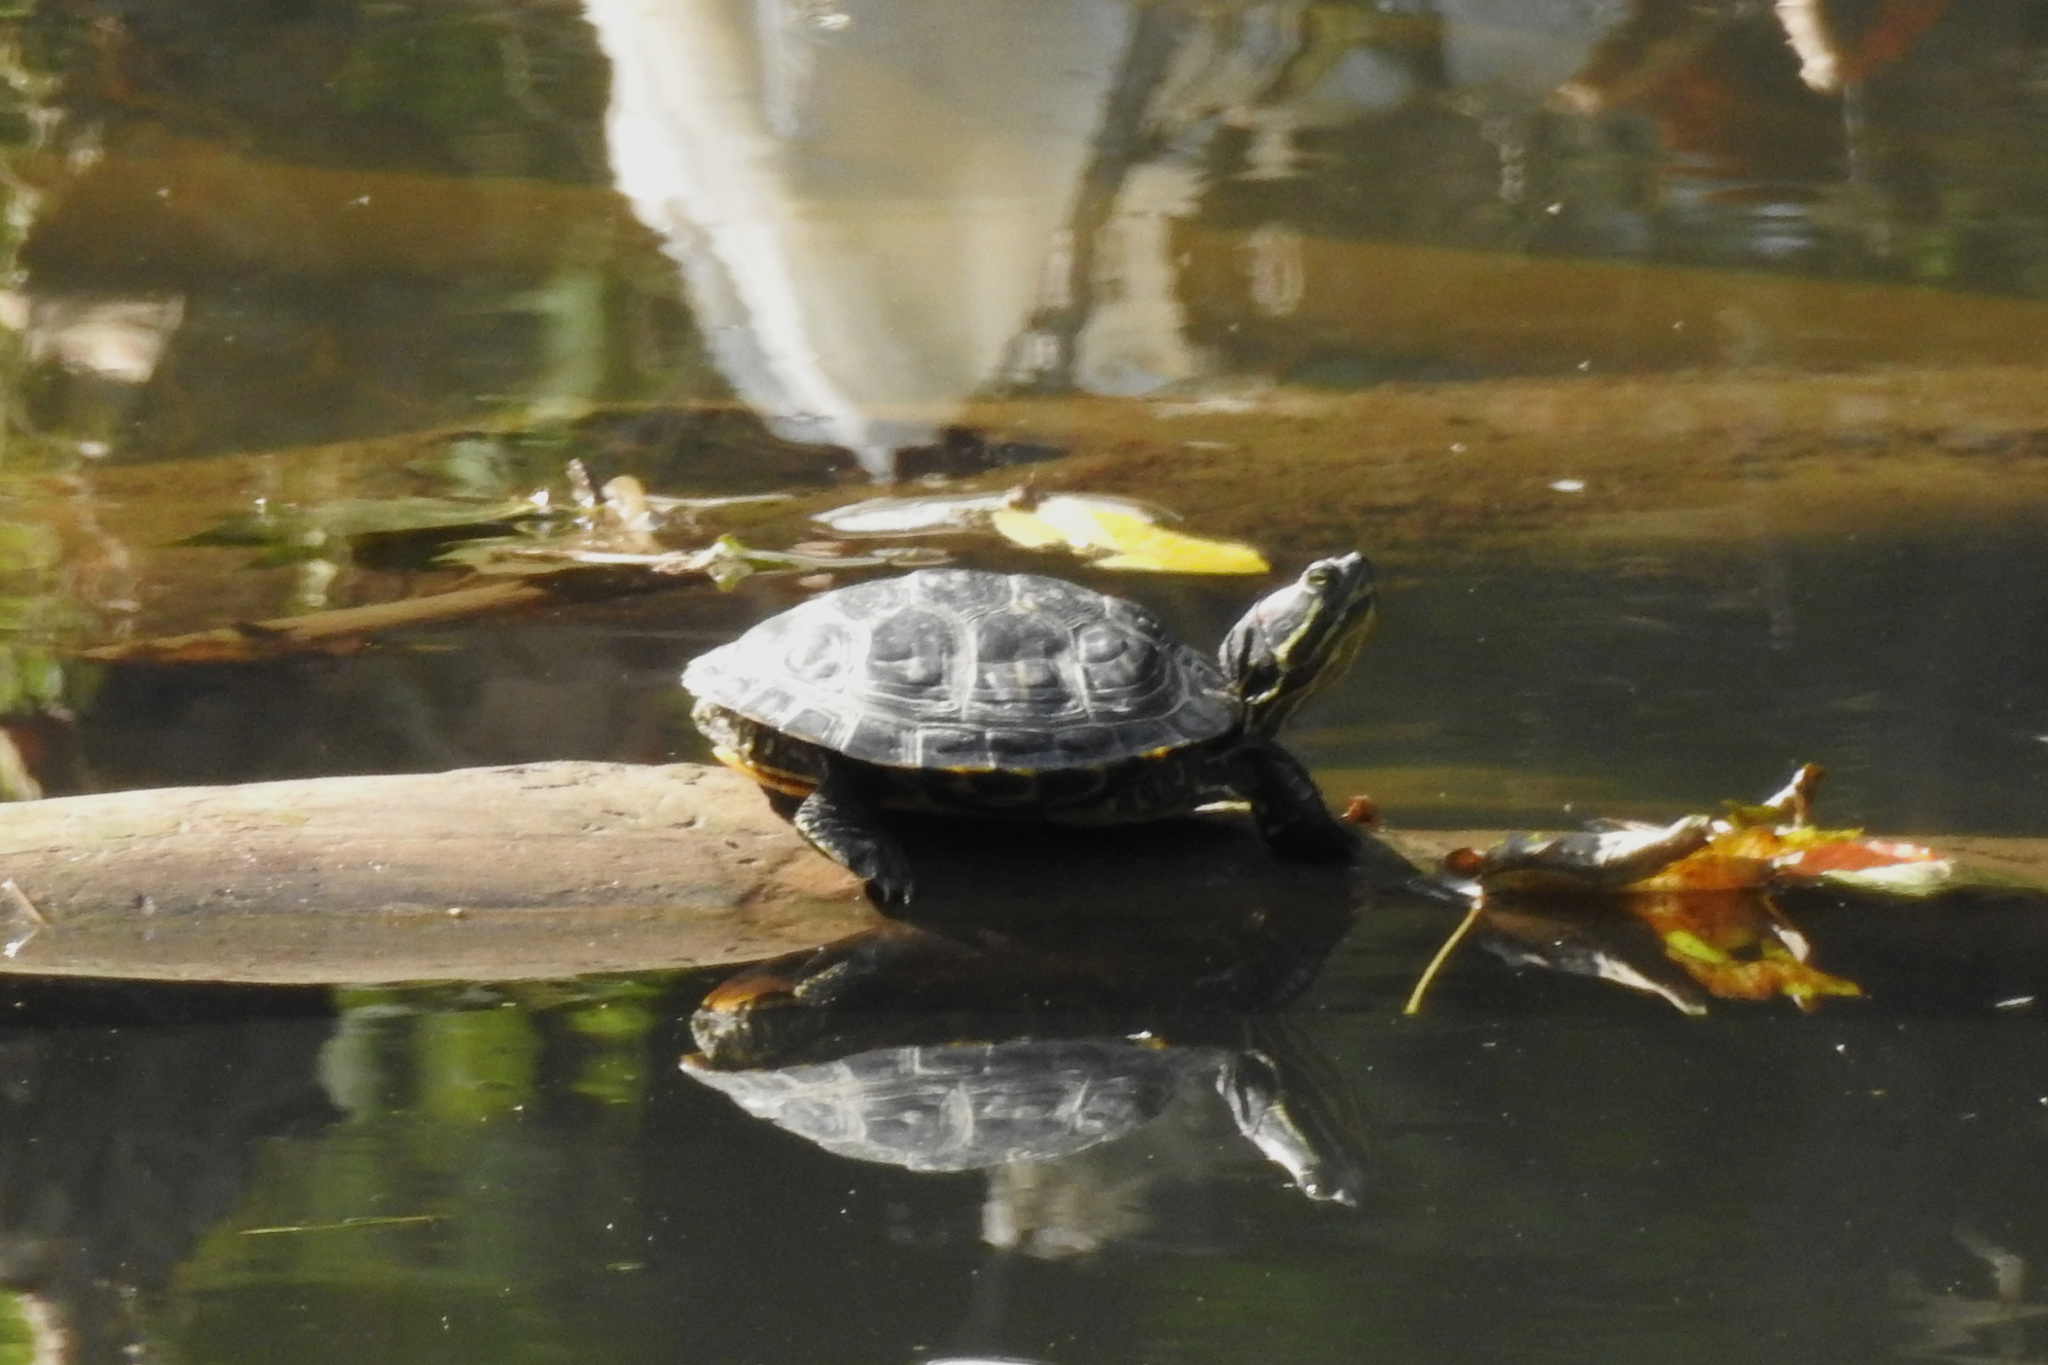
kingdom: Animalia
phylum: Chordata
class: Testudines
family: Emydidae
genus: Trachemys
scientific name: Trachemys scripta
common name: Slider
